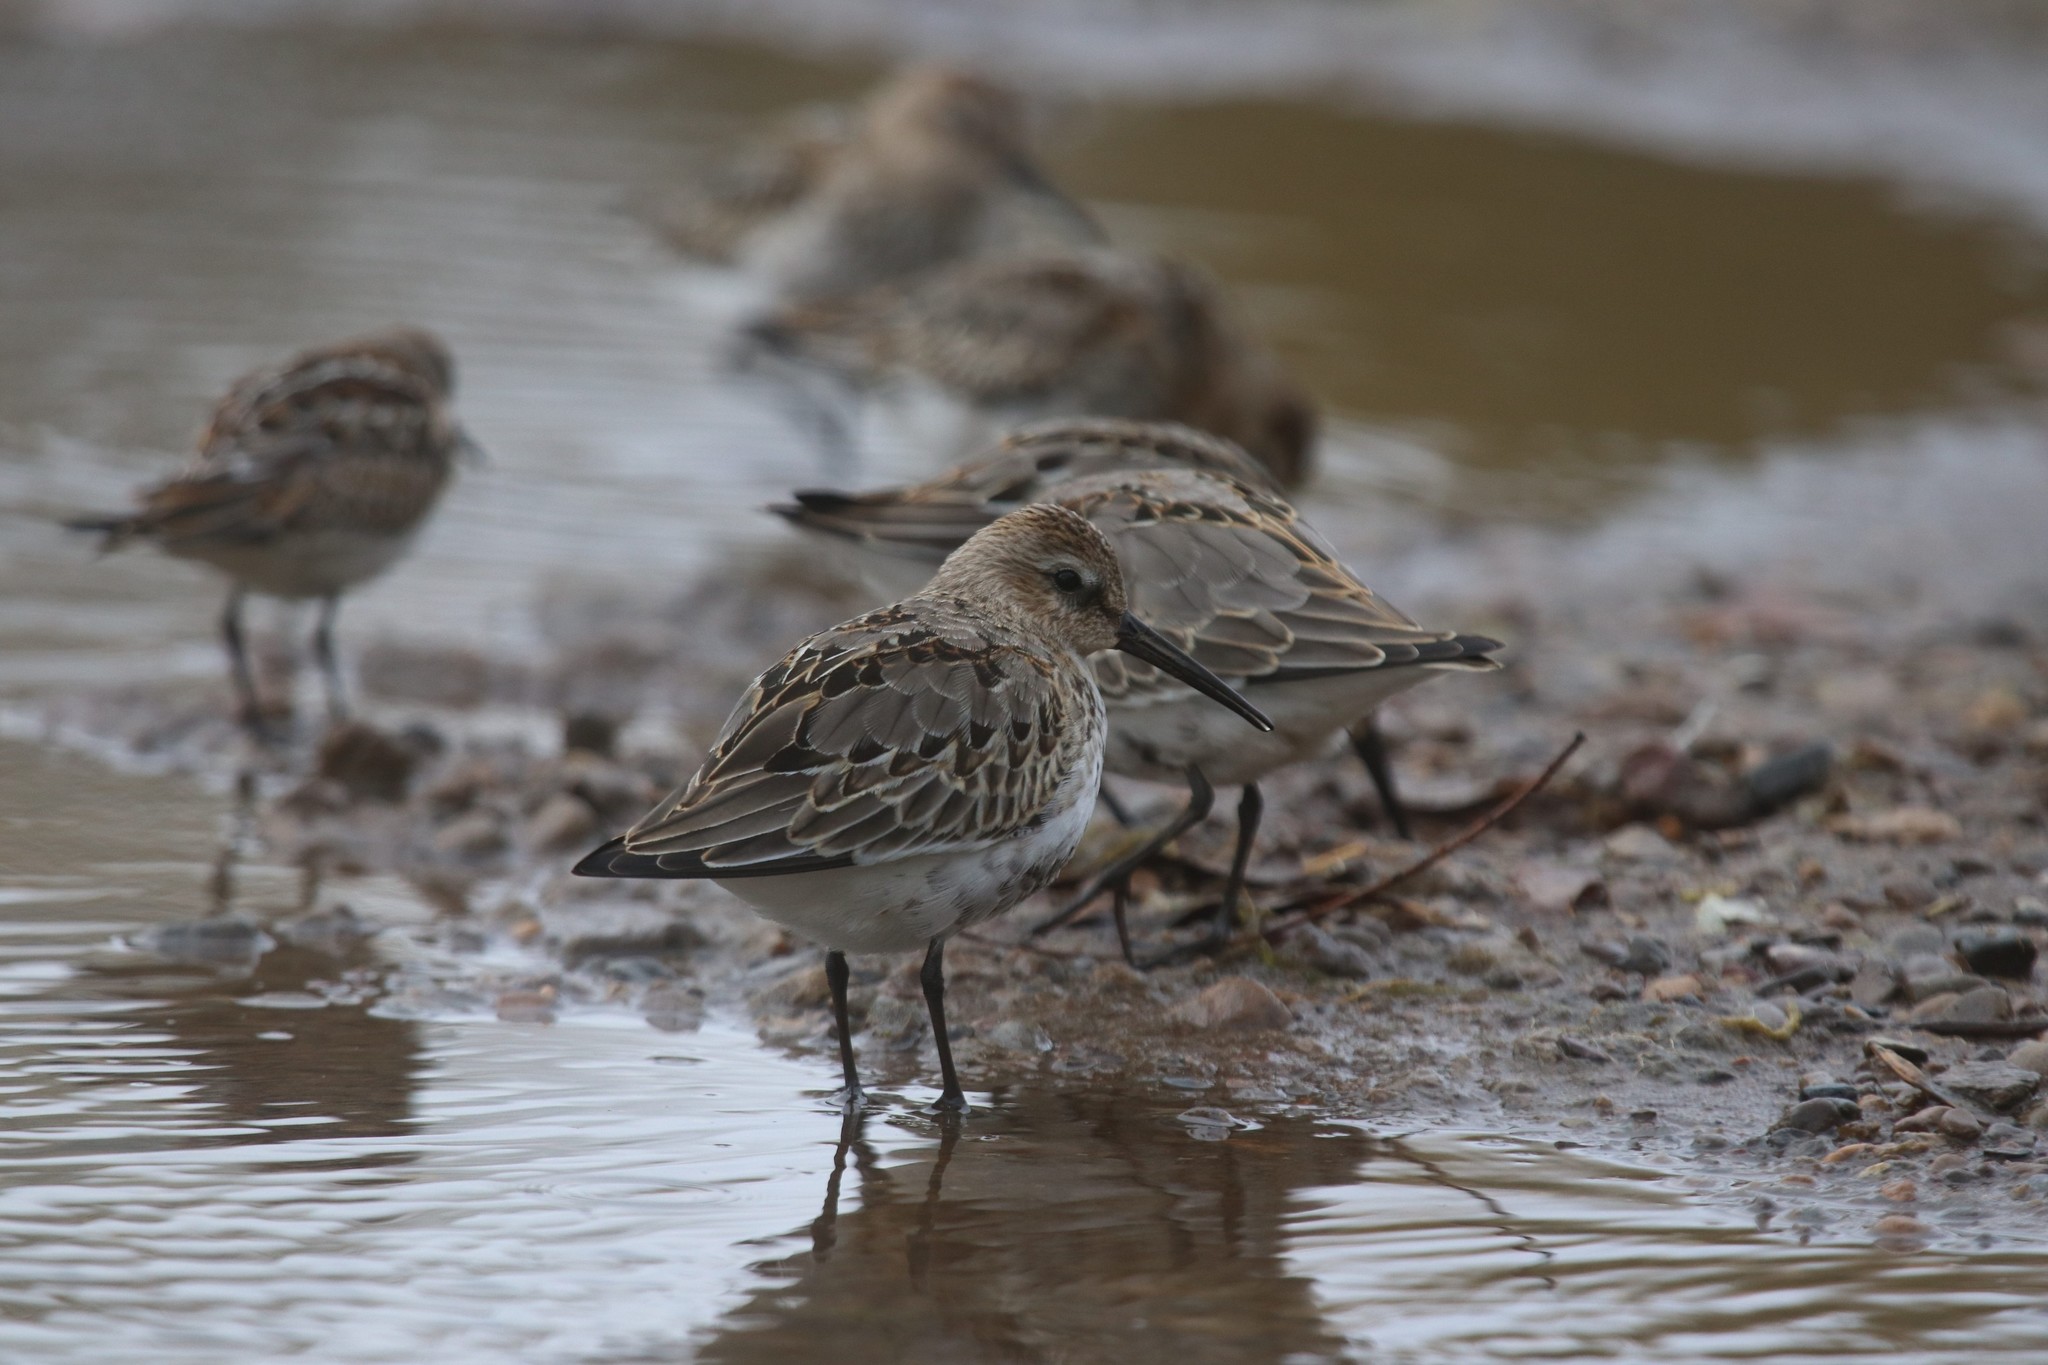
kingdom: Animalia
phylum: Chordata
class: Aves
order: Charadriiformes
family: Scolopacidae
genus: Calidris
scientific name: Calidris alpina
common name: Dunlin
